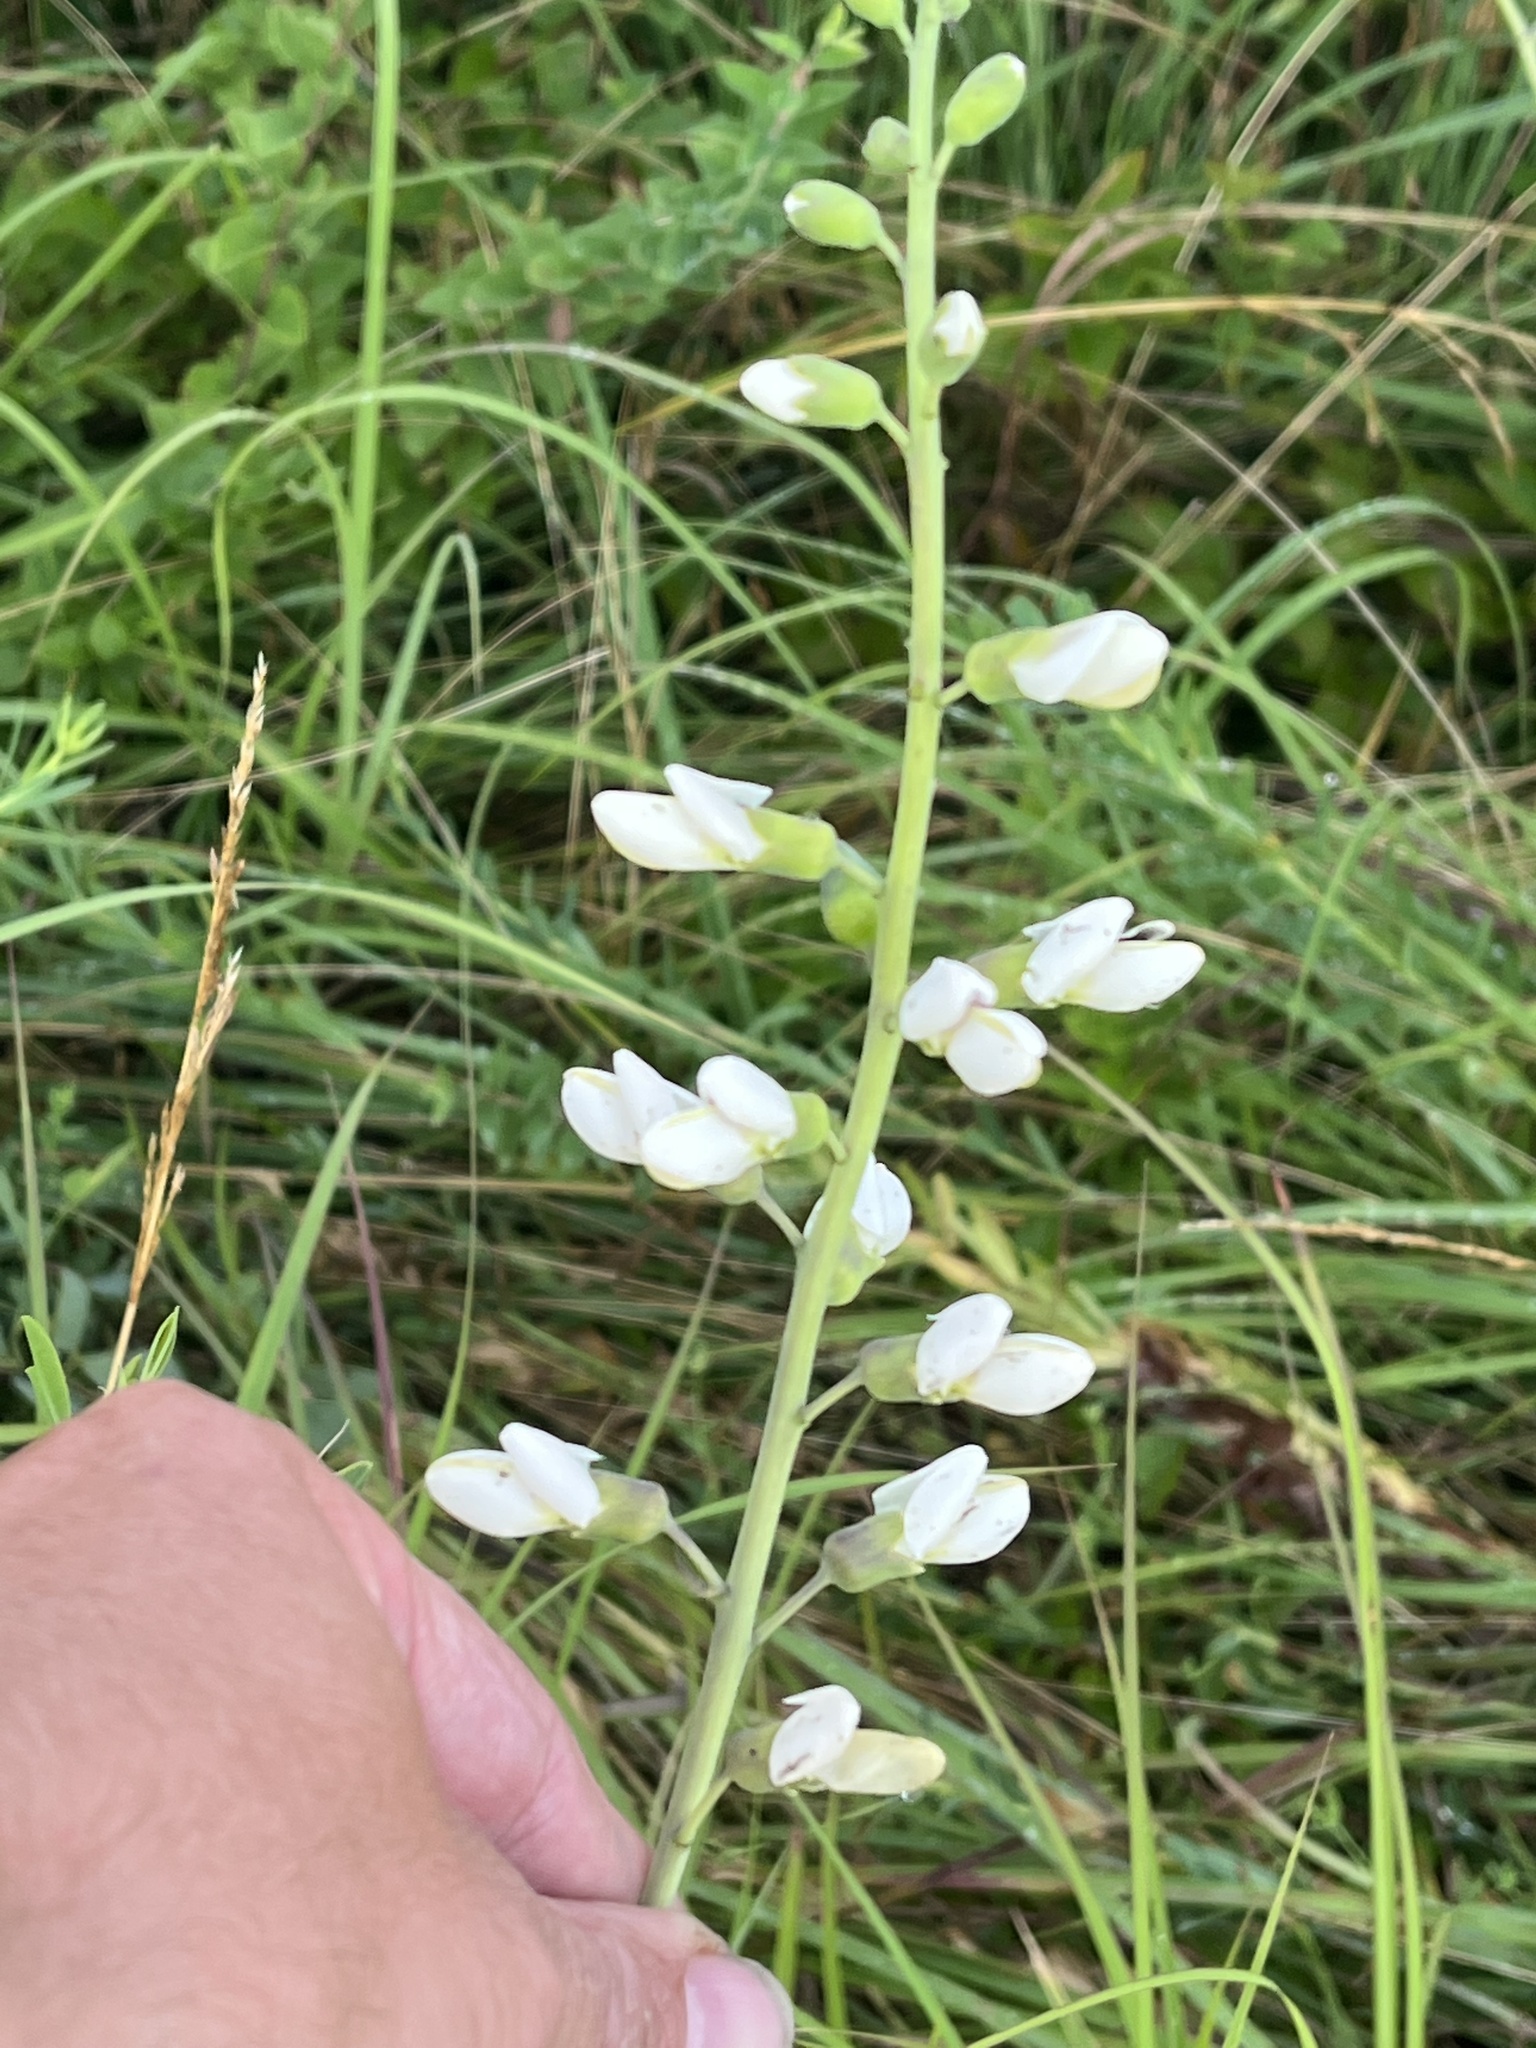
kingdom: Plantae
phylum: Tracheophyta
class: Magnoliopsida
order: Fabales
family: Fabaceae
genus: Baptisia
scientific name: Baptisia alba
